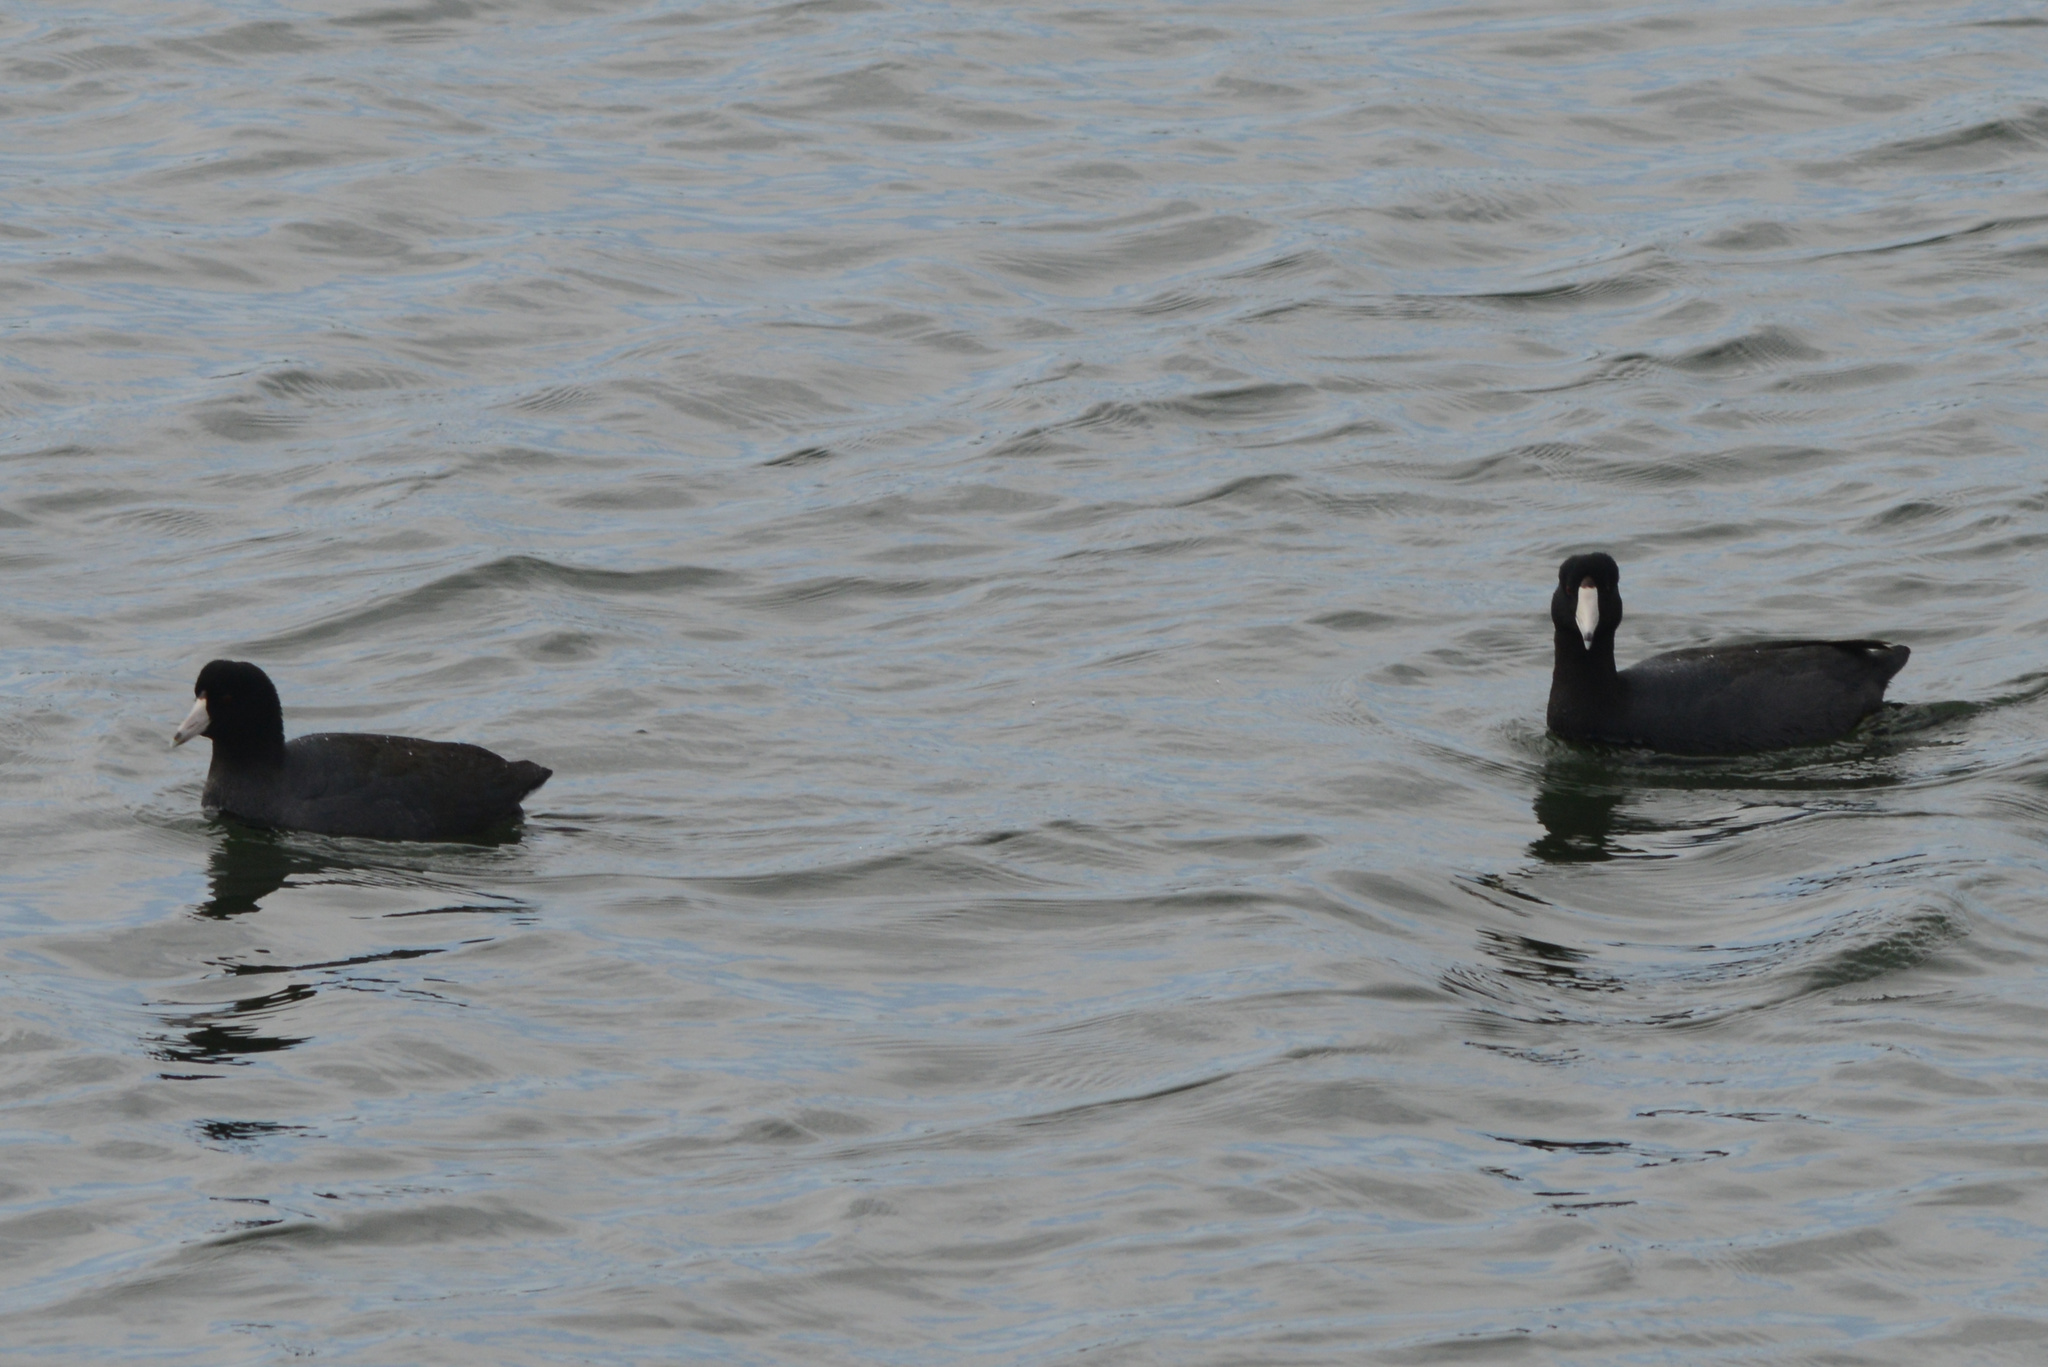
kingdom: Animalia
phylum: Chordata
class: Aves
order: Gruiformes
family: Rallidae
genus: Fulica
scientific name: Fulica americana
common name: American coot
